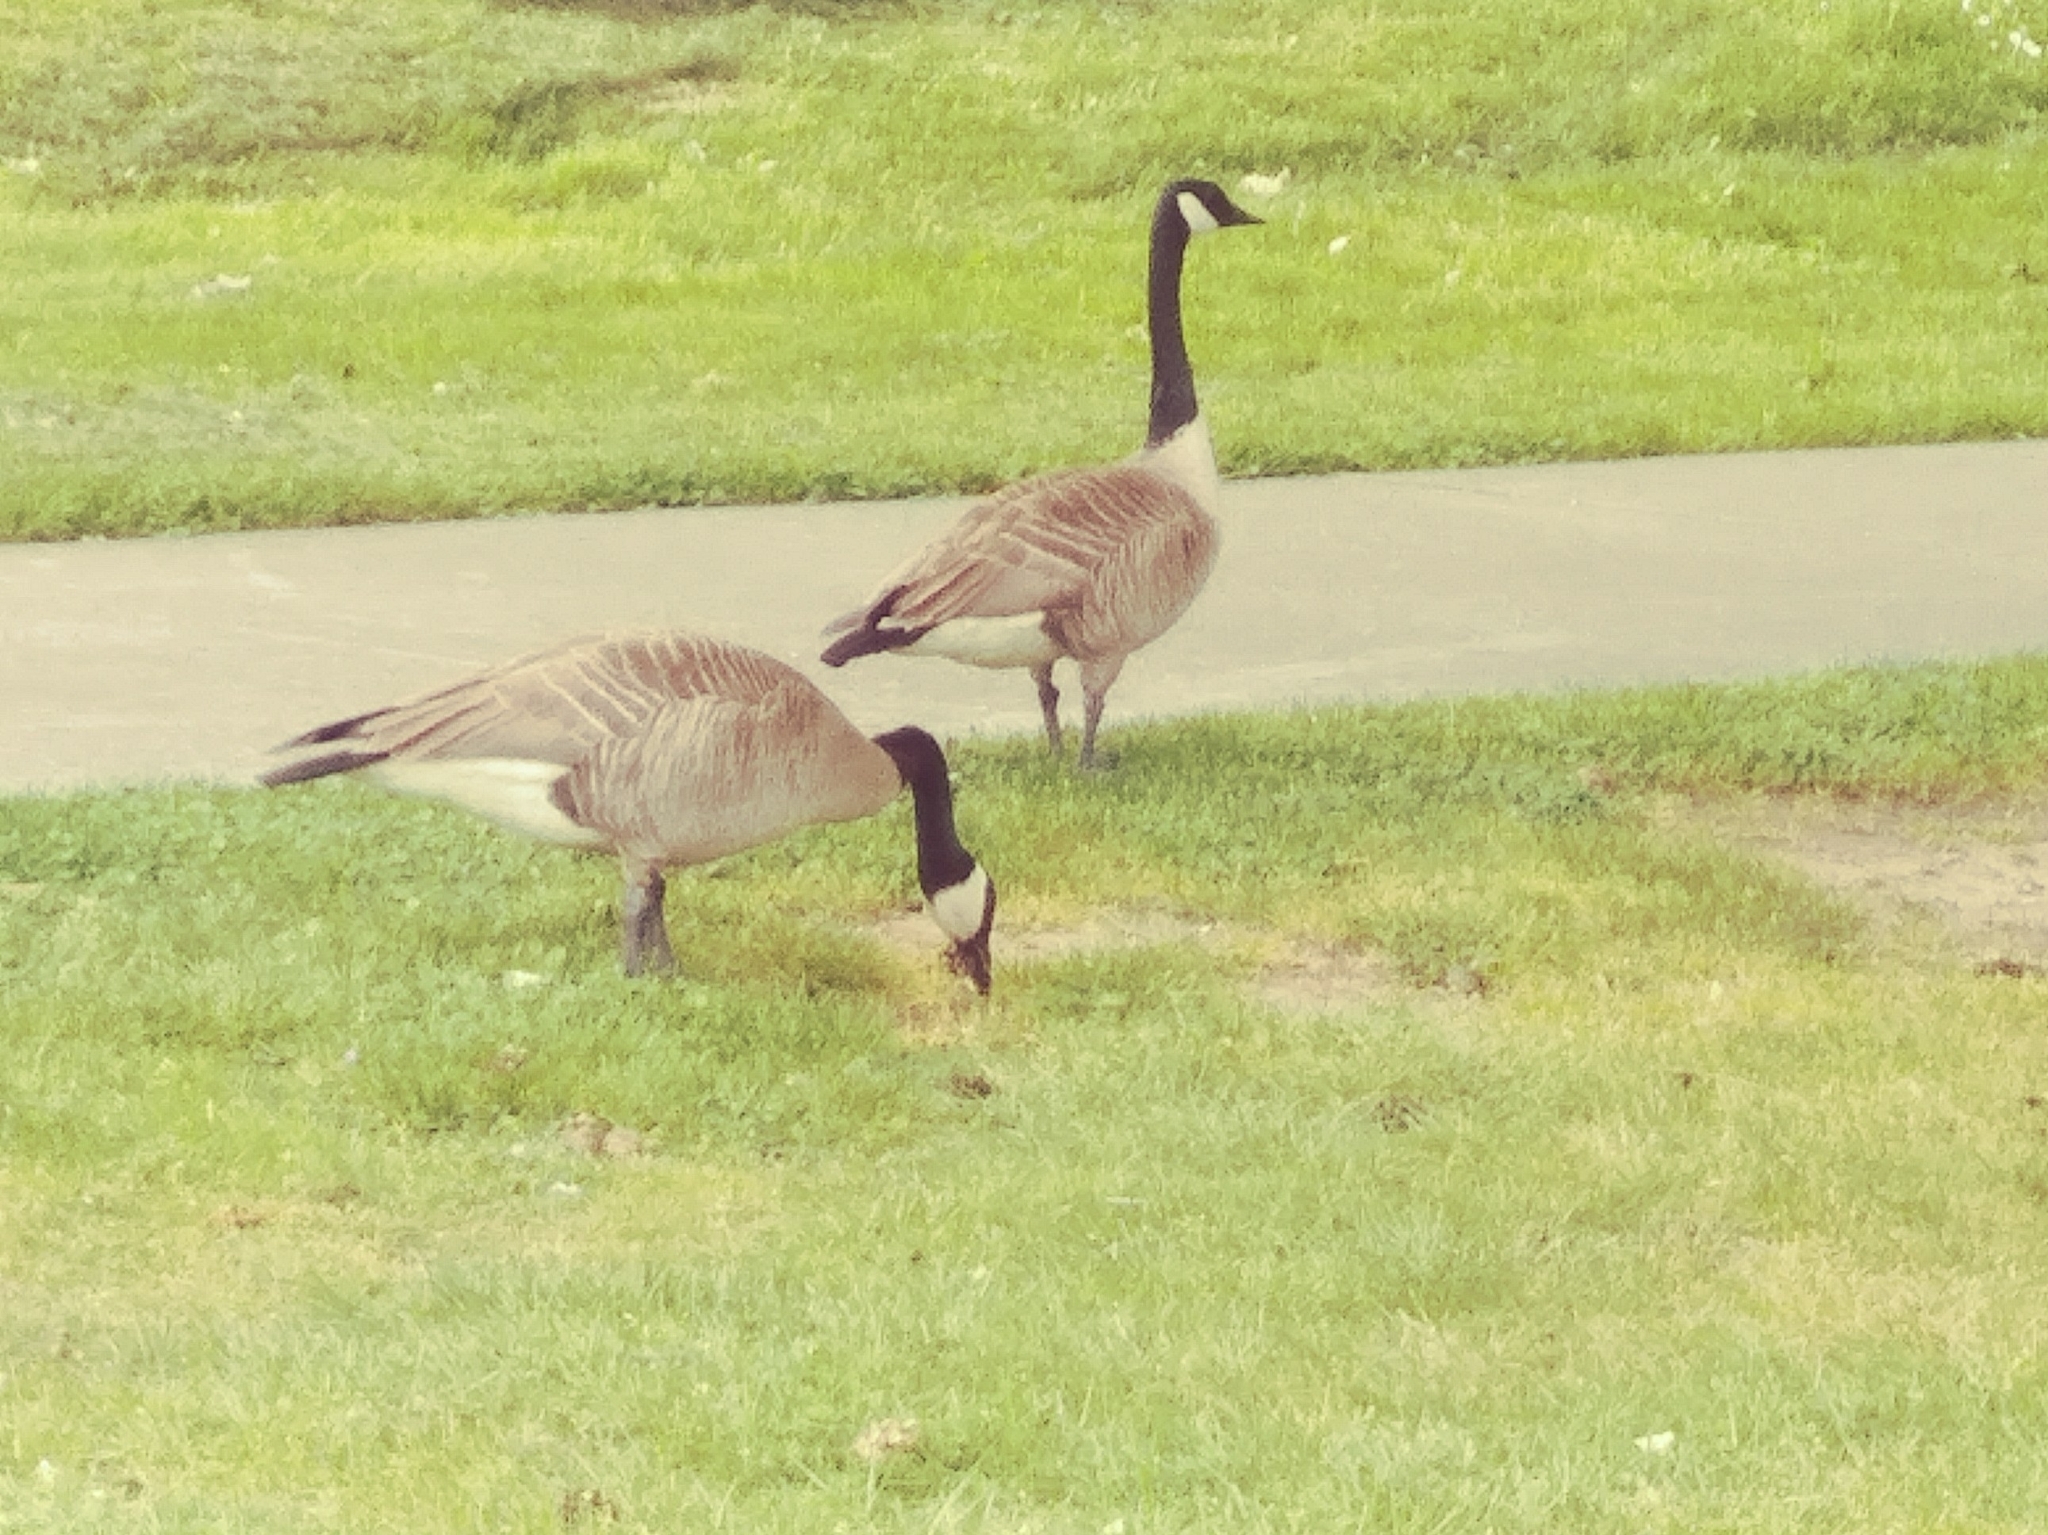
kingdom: Animalia
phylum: Chordata
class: Aves
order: Anseriformes
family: Anatidae
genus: Branta
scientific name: Branta canadensis
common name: Canada goose
